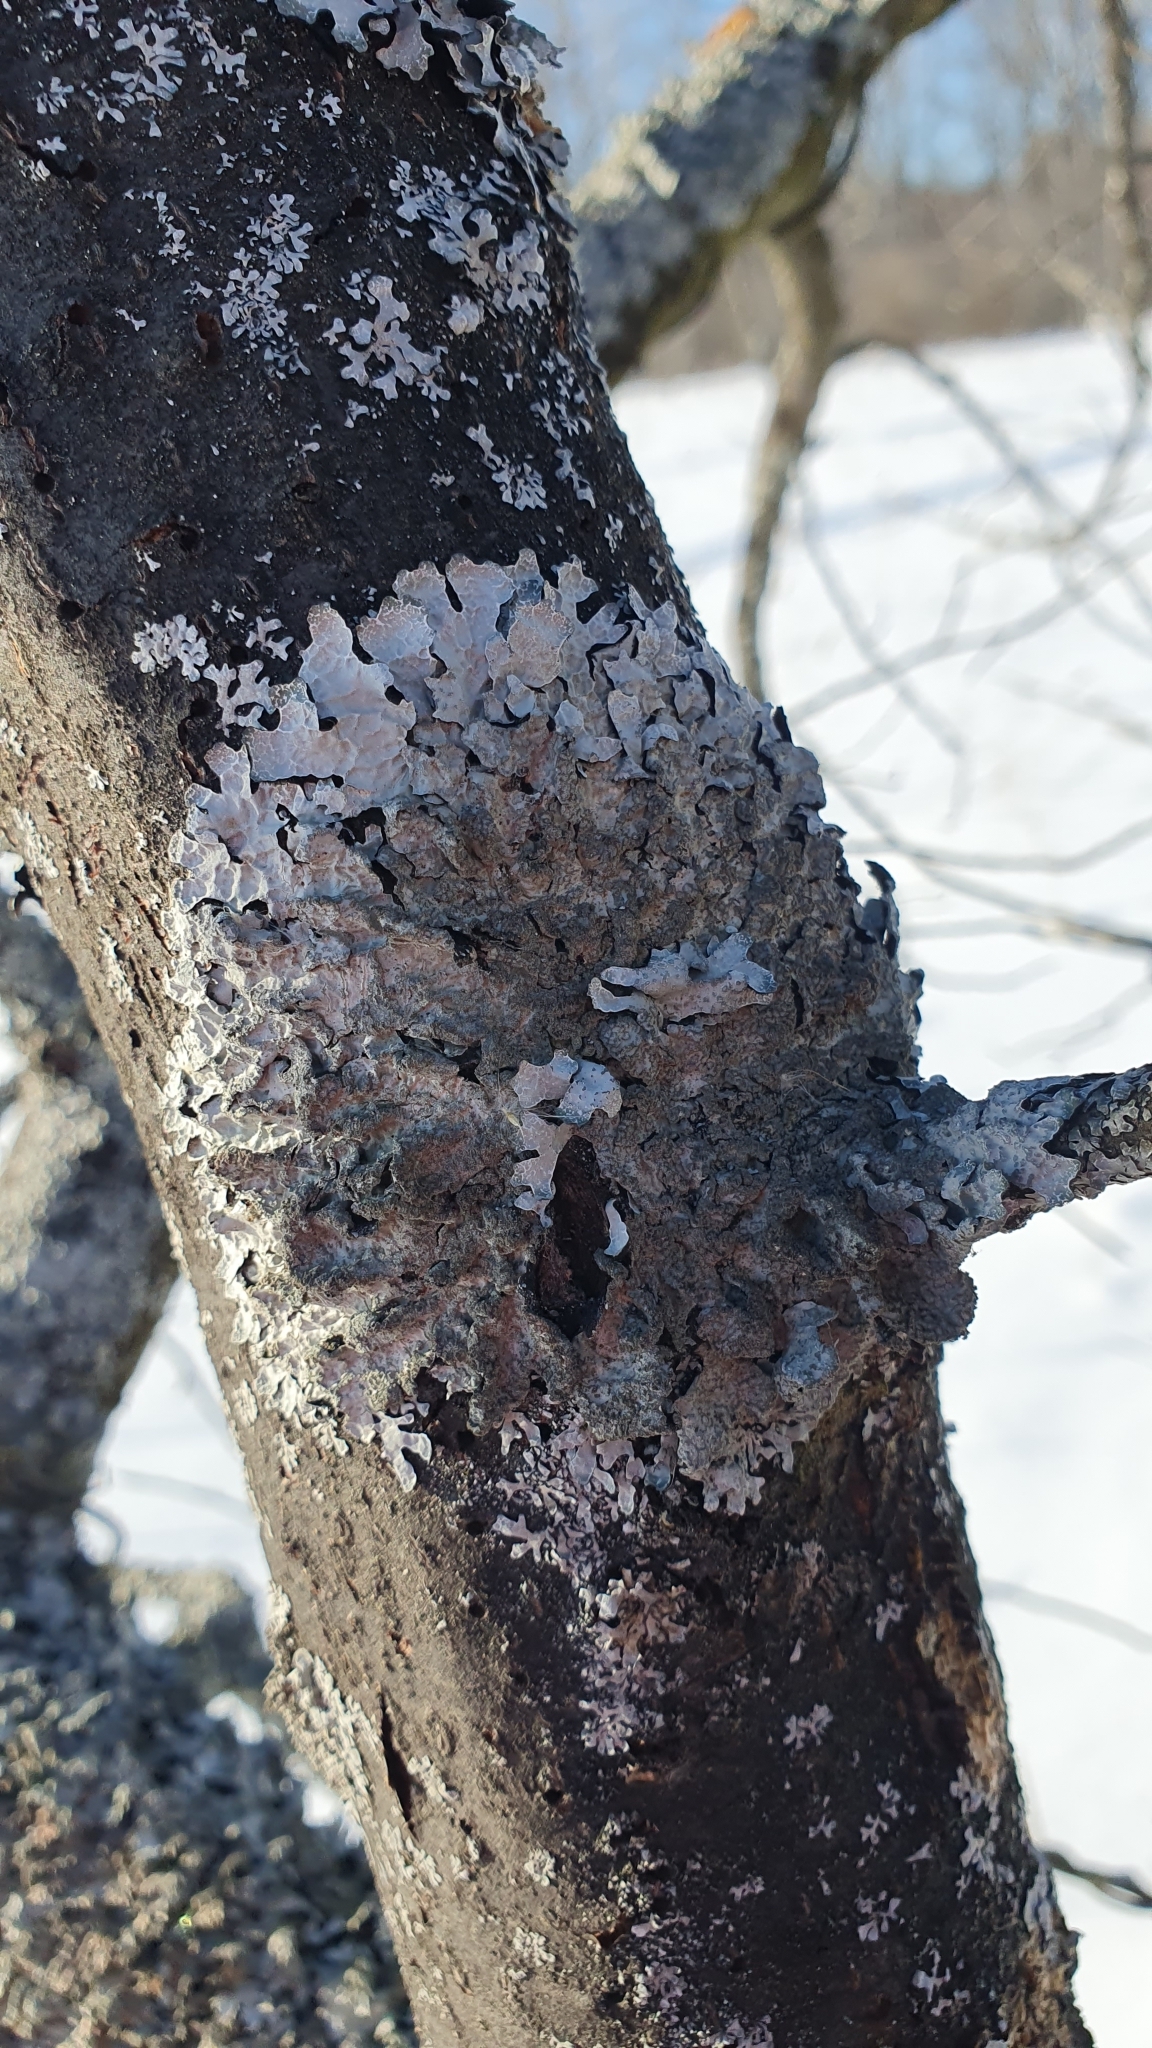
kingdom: Fungi
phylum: Ascomycota
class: Lecanoromycetes
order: Lecanorales
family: Parmeliaceae
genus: Parmelia
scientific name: Parmelia sulcata
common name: Netted shield lichen
